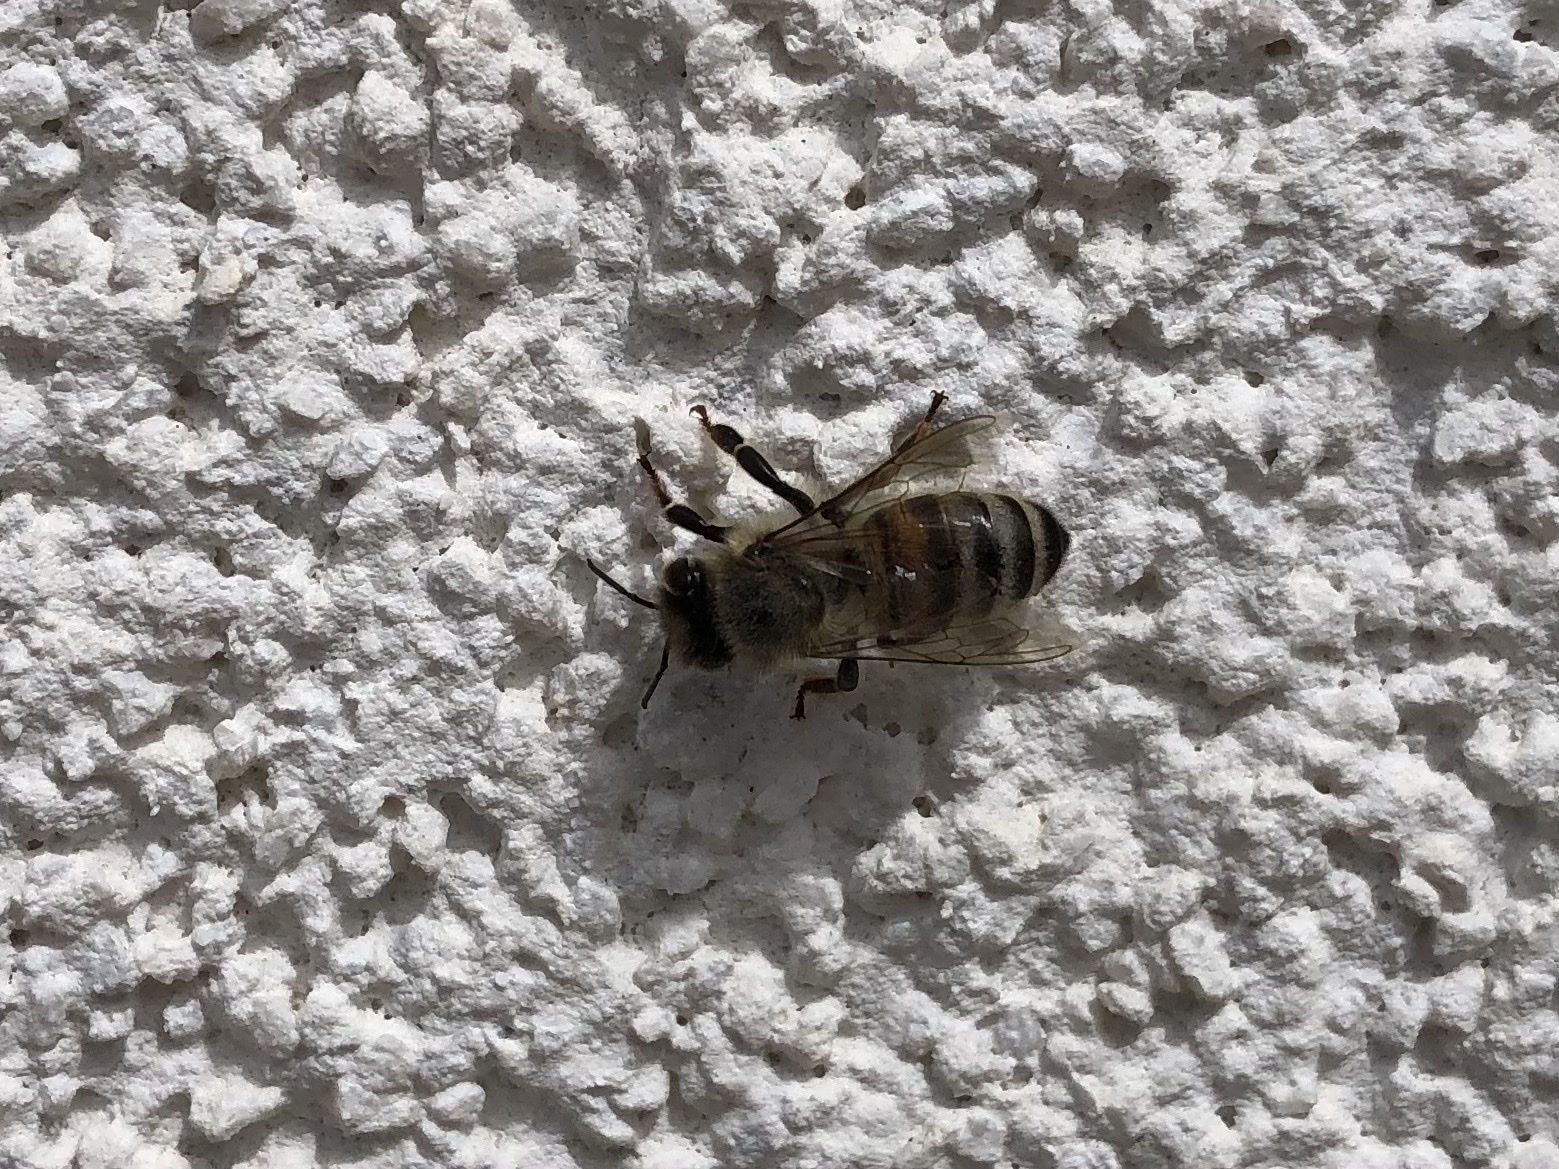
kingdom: Animalia
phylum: Arthropoda
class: Insecta
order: Hymenoptera
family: Apidae
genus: Apis
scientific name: Apis mellifera
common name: Honey bee
